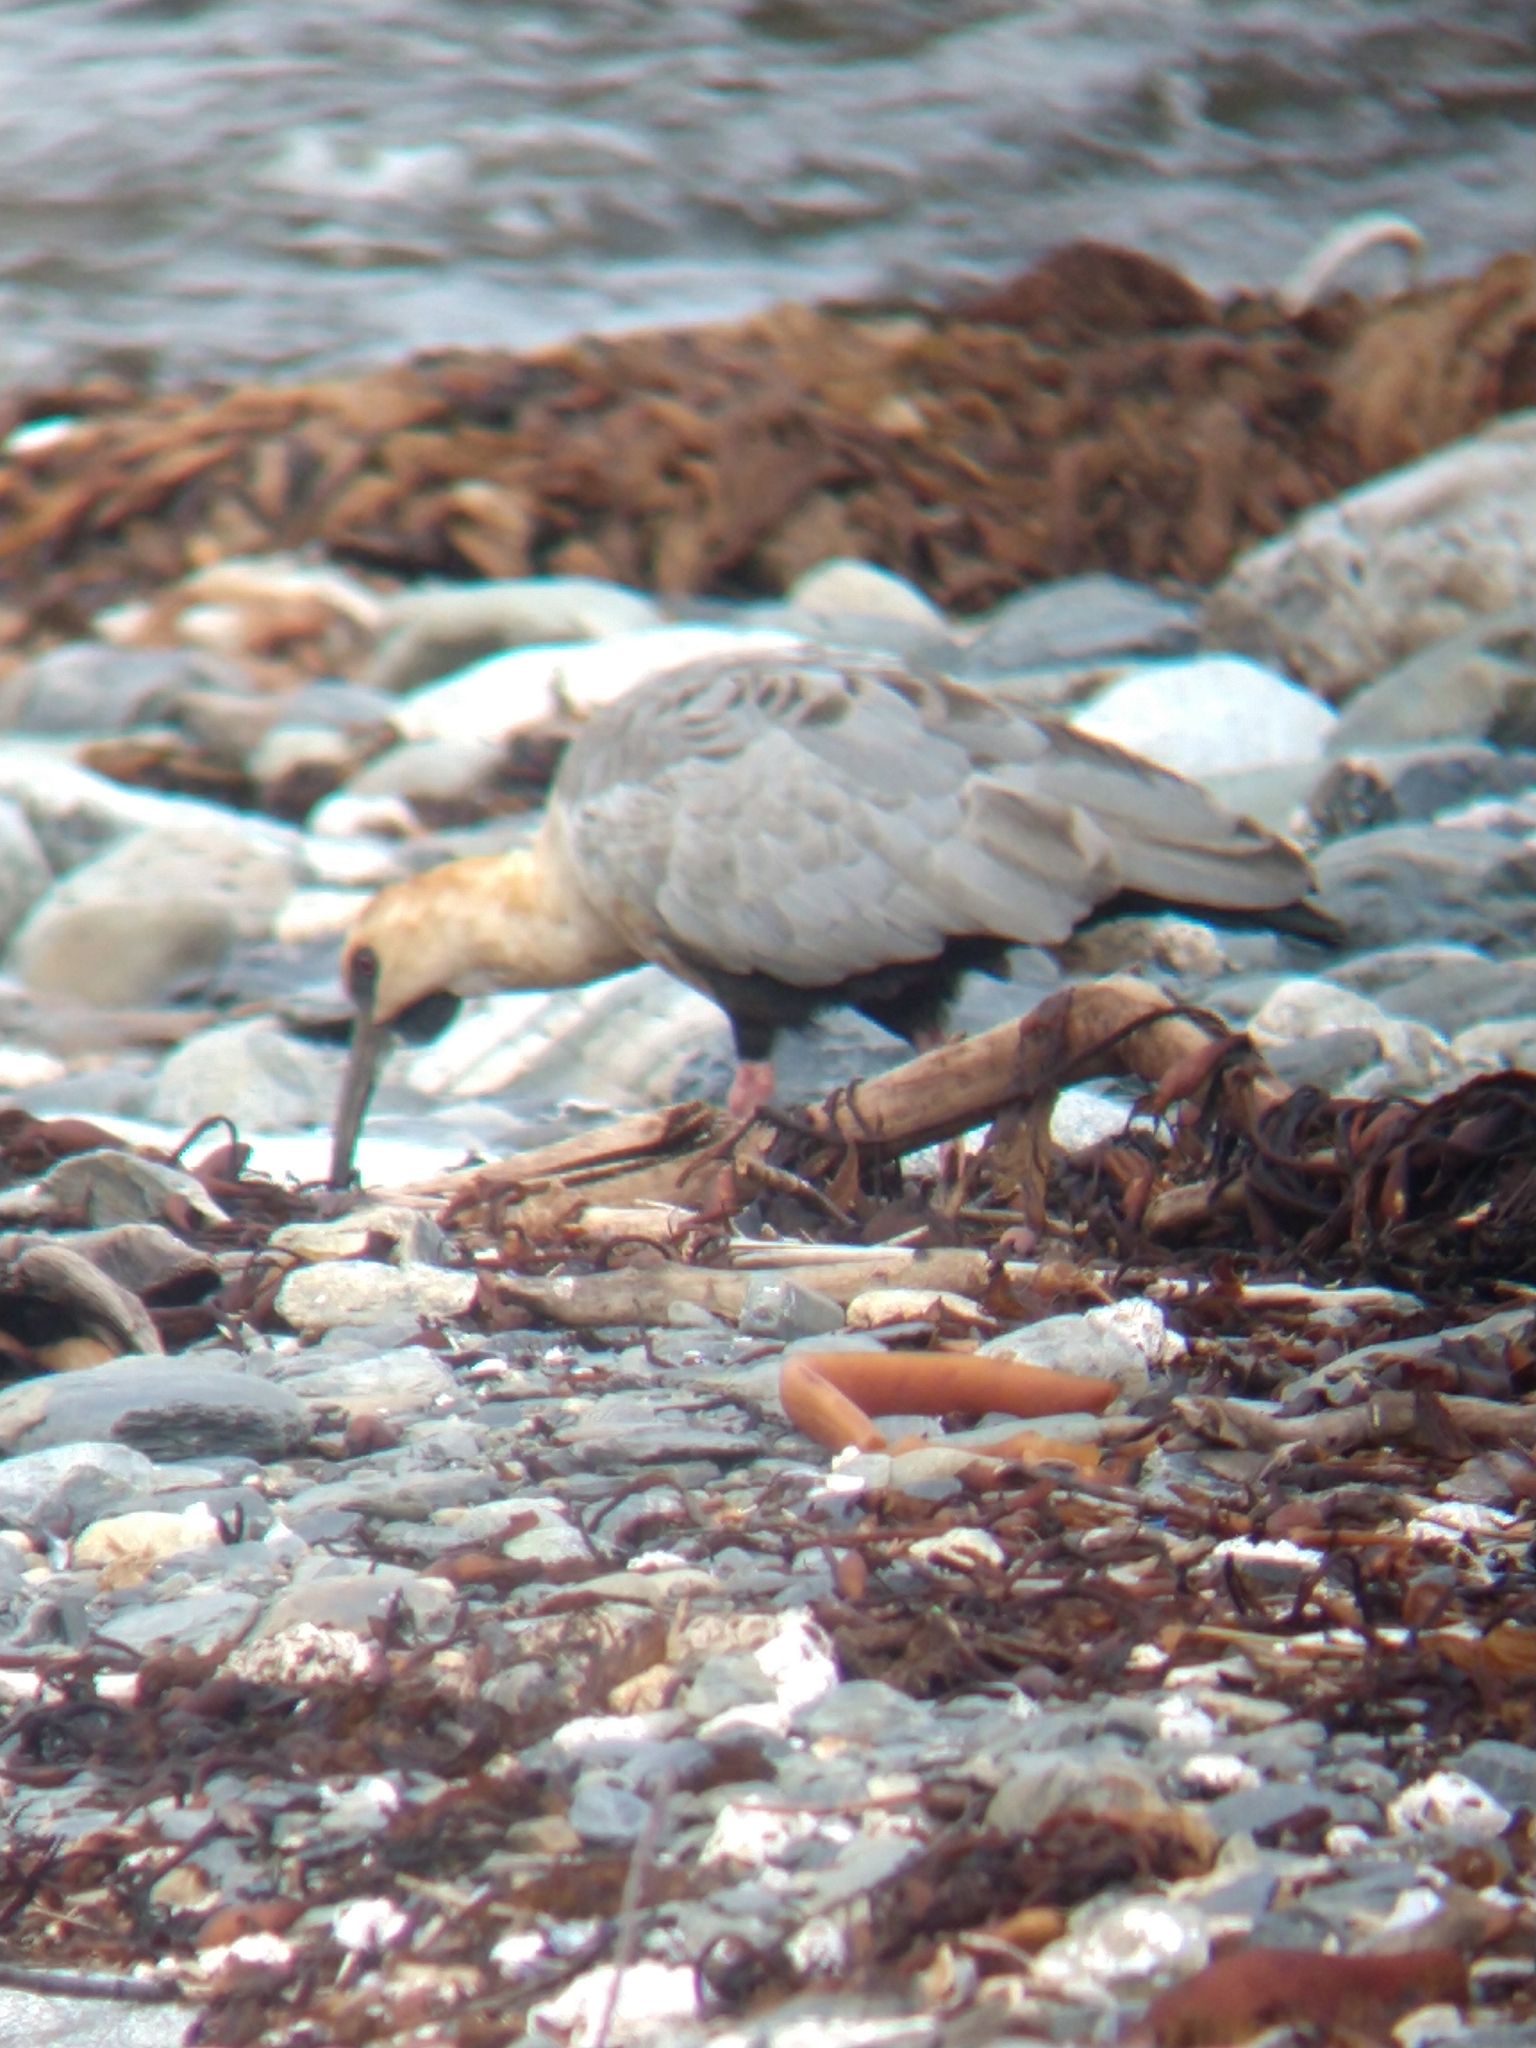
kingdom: Animalia
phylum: Chordata
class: Aves
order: Pelecaniformes
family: Threskiornithidae
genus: Theristicus
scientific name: Theristicus melanopis
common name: Black-faced ibis
